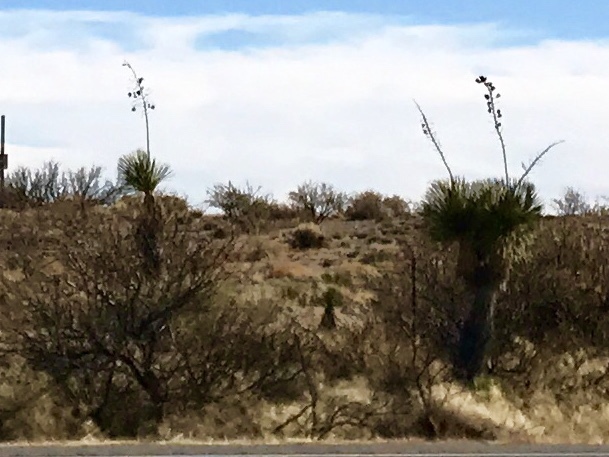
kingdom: Plantae
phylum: Tracheophyta
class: Liliopsida
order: Asparagales
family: Asparagaceae
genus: Yucca
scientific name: Yucca elata
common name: Palmella
